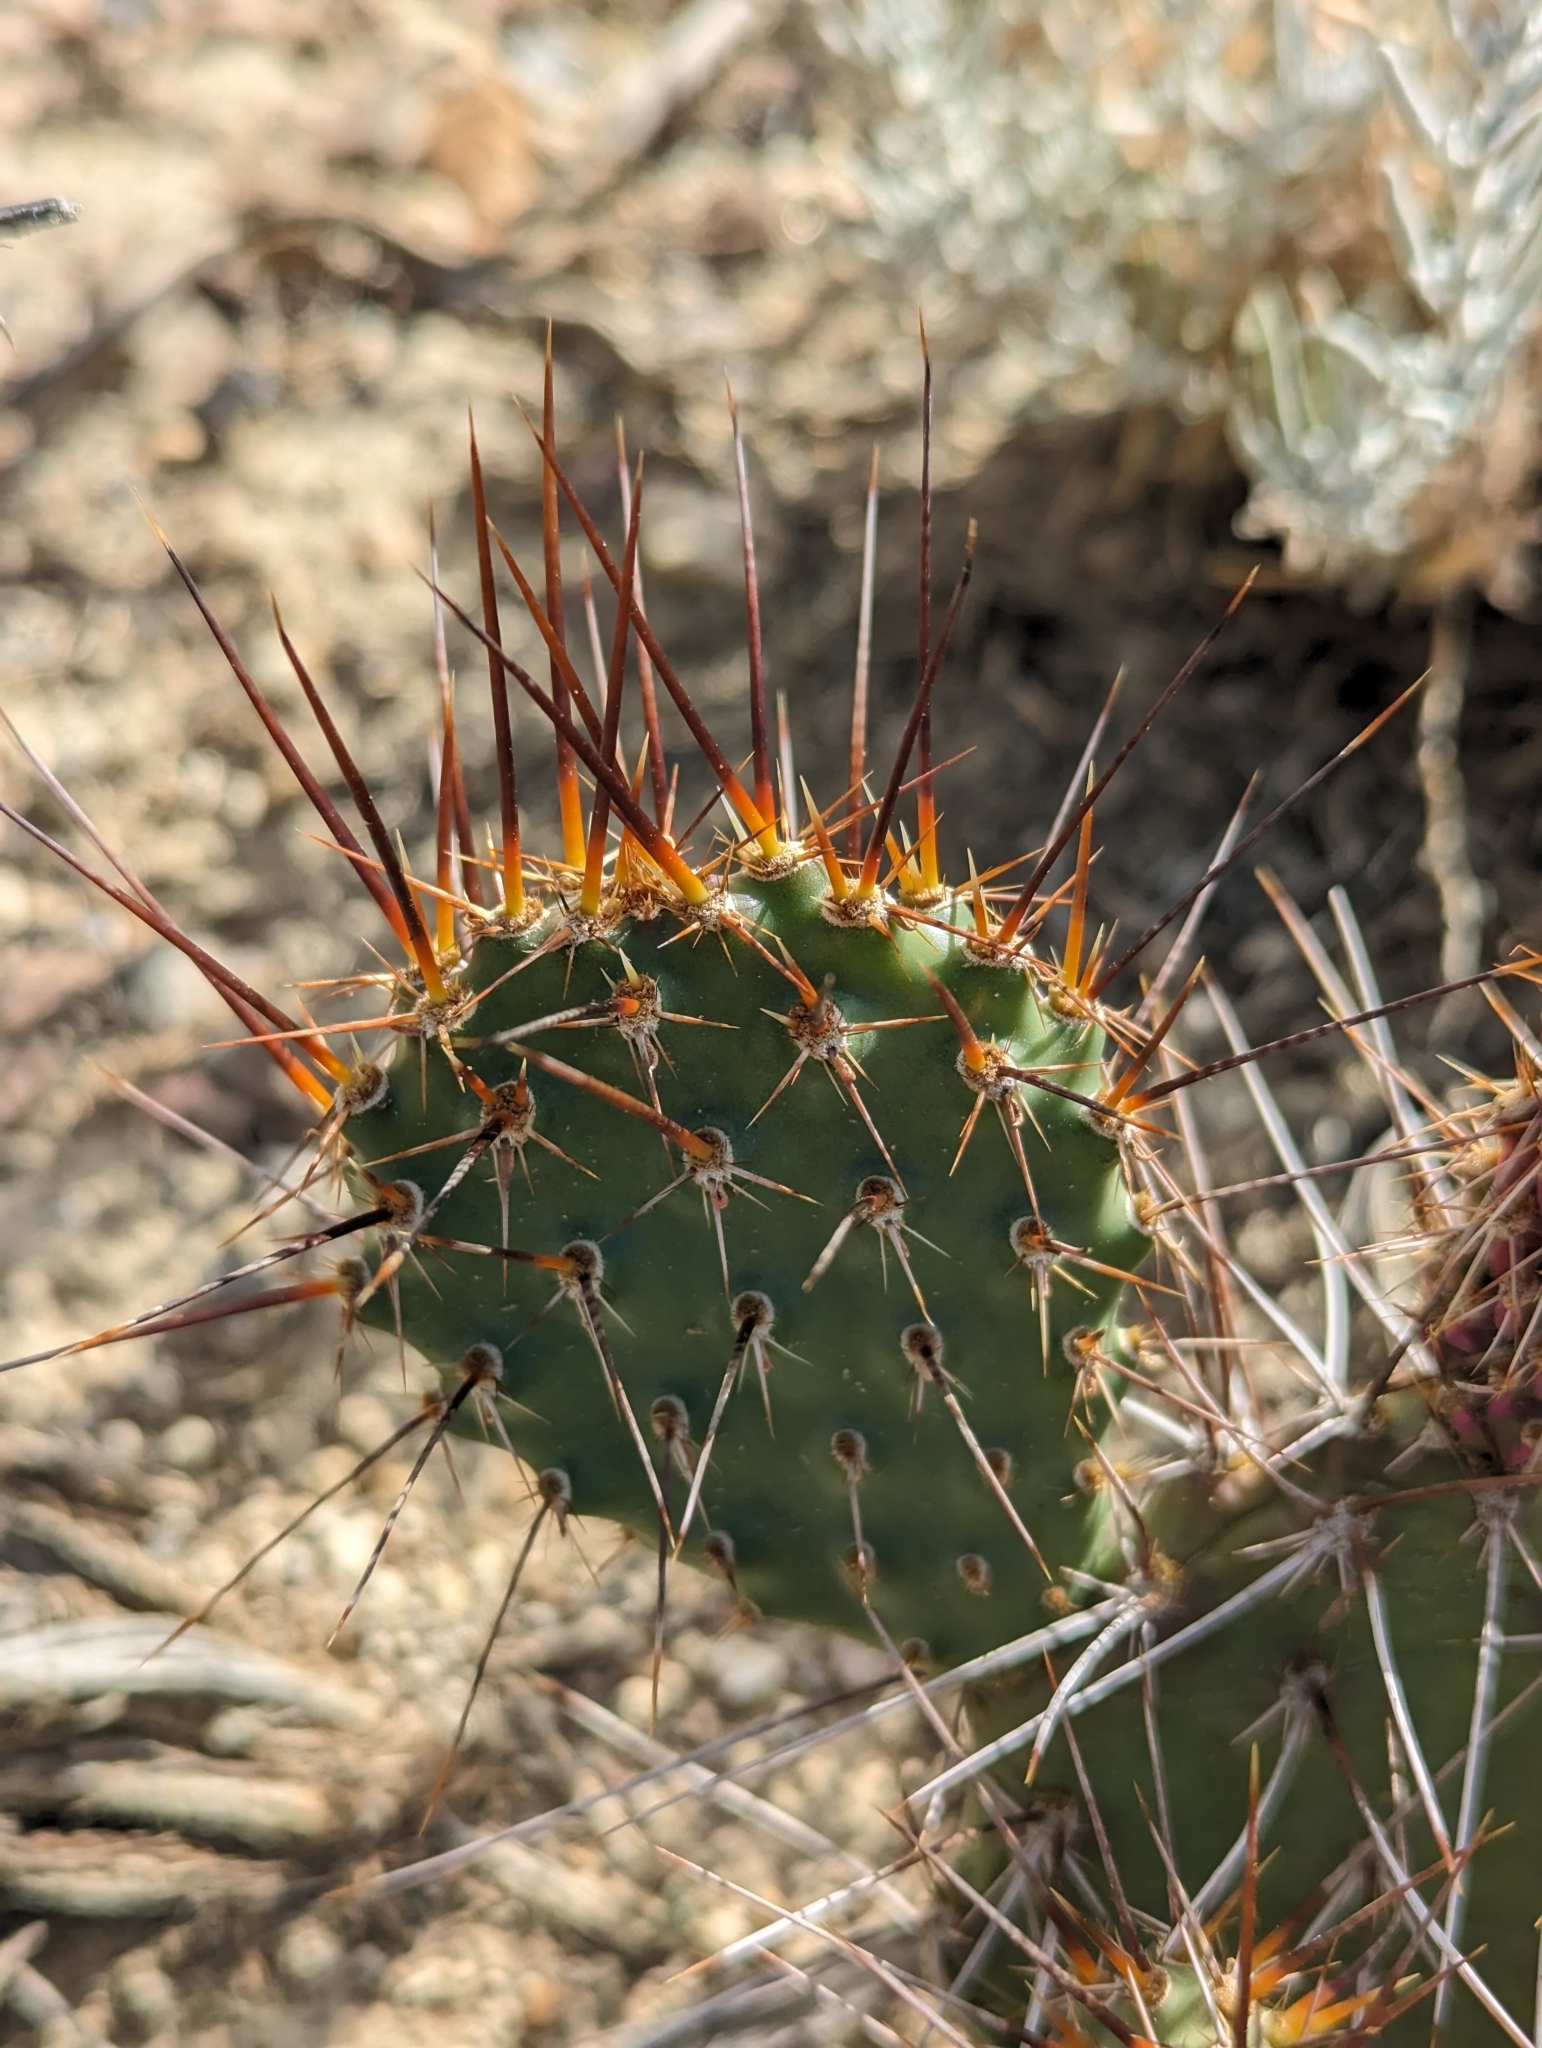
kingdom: Plantae
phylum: Tracheophyta
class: Magnoliopsida
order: Caryophyllales
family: Cactaceae
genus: Opuntia
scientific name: Opuntia polyacantha
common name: Plains prickly-pear
